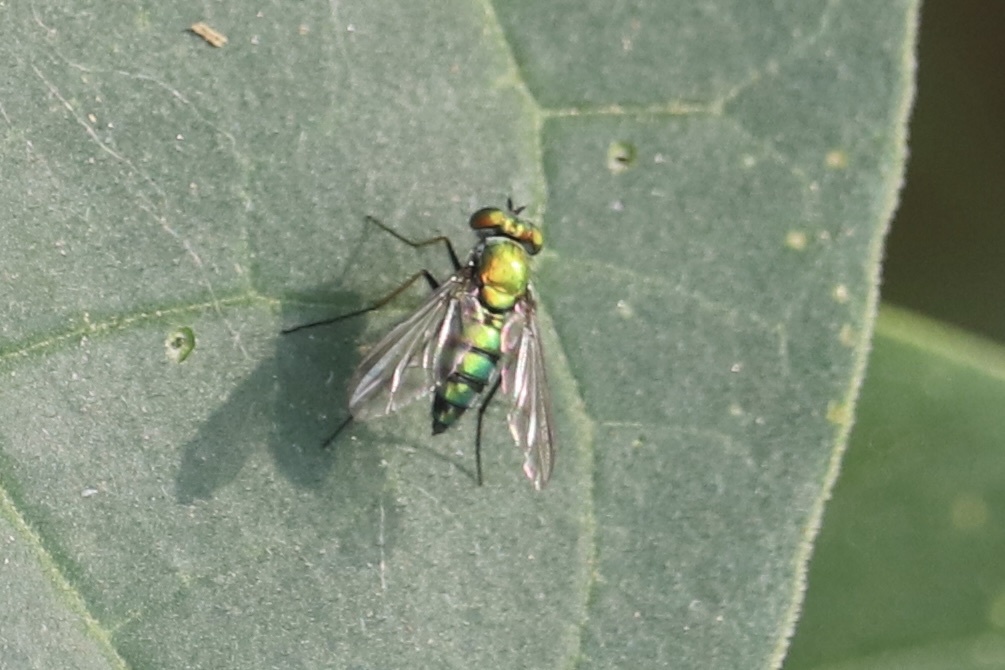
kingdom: Animalia
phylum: Arthropoda
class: Insecta
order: Diptera
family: Dolichopodidae
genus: Condylostylus
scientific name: Condylostylus longicornis
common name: Long-legged fly
